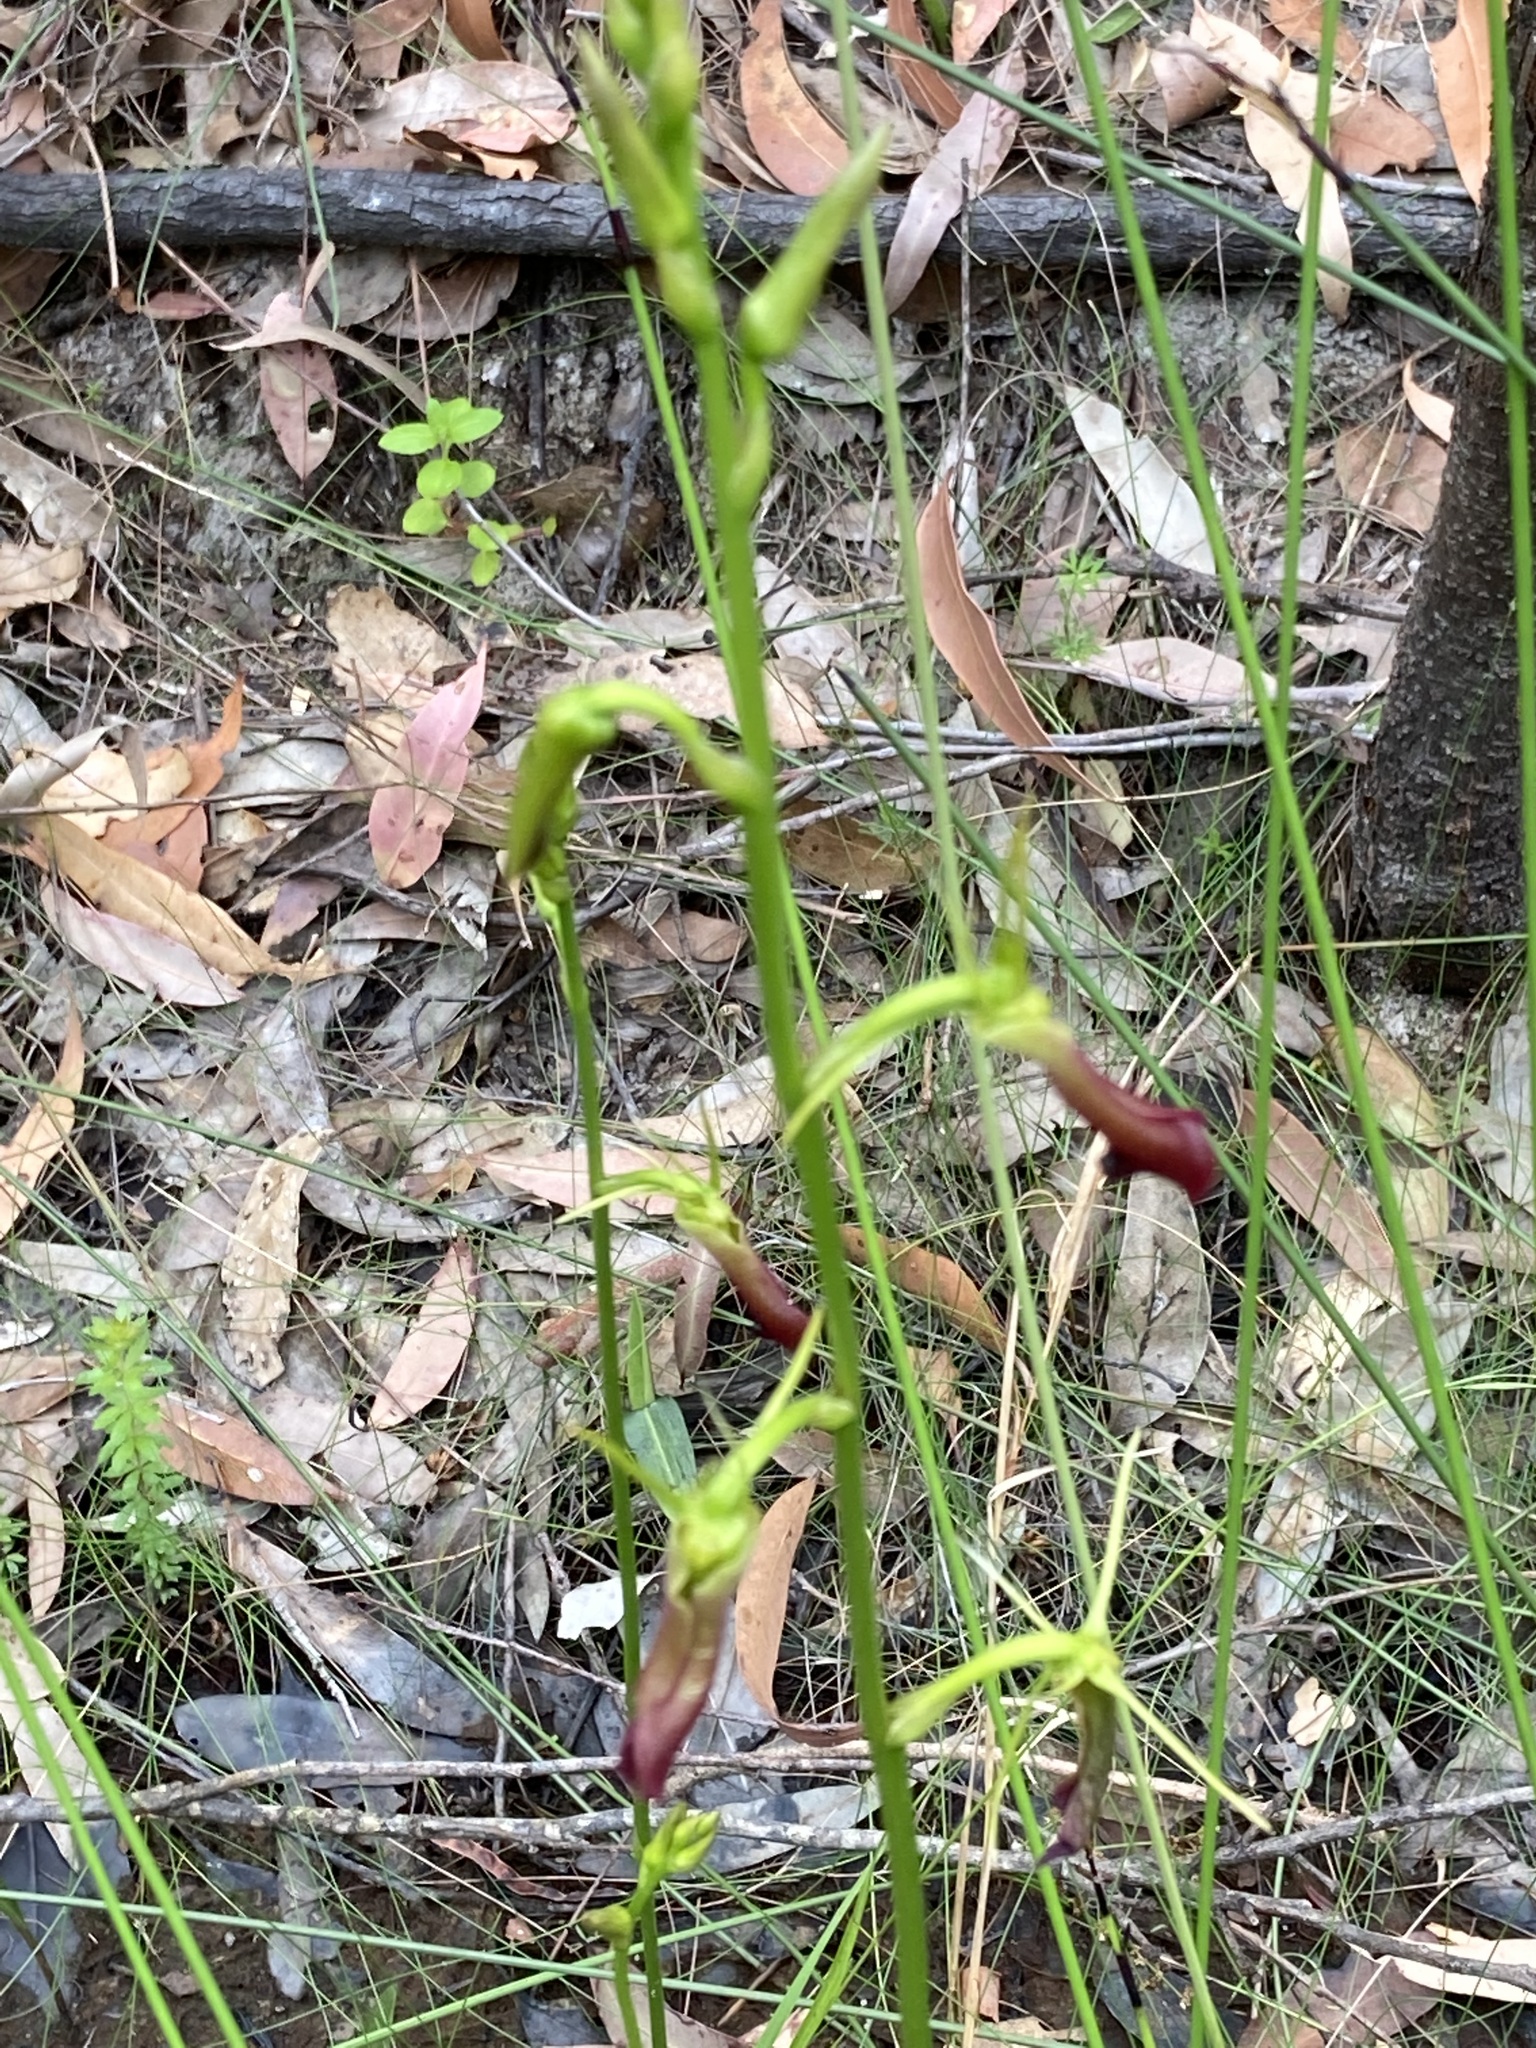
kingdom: Plantae
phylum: Tracheophyta
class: Liliopsida
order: Asparagales
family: Orchidaceae
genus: Cryptostylis
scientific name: Cryptostylis subulata
